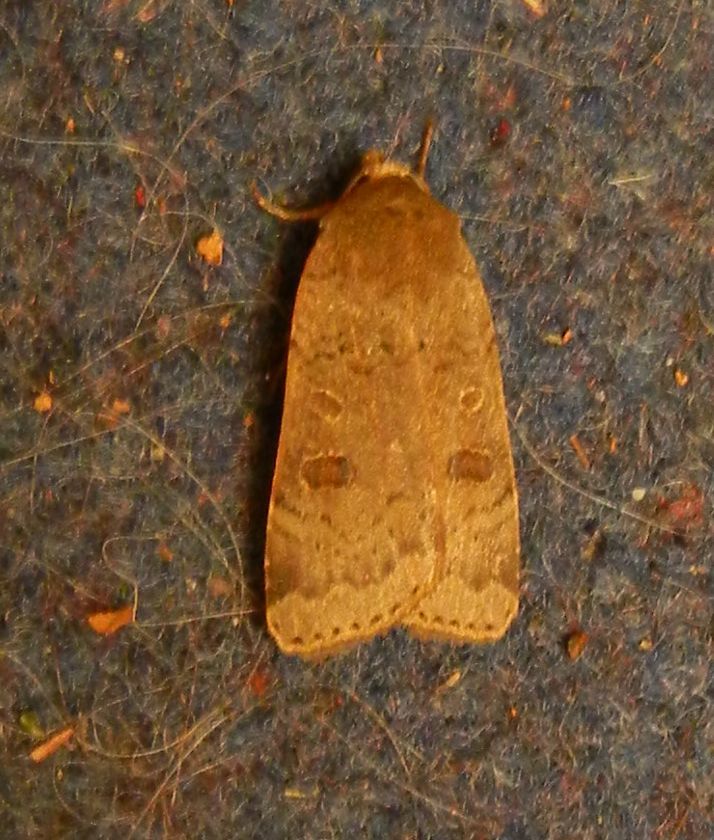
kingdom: Animalia
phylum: Arthropoda
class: Insecta
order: Lepidoptera
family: Noctuidae
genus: Noctua
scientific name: Noctua comes
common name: Lesser yellow underwing
